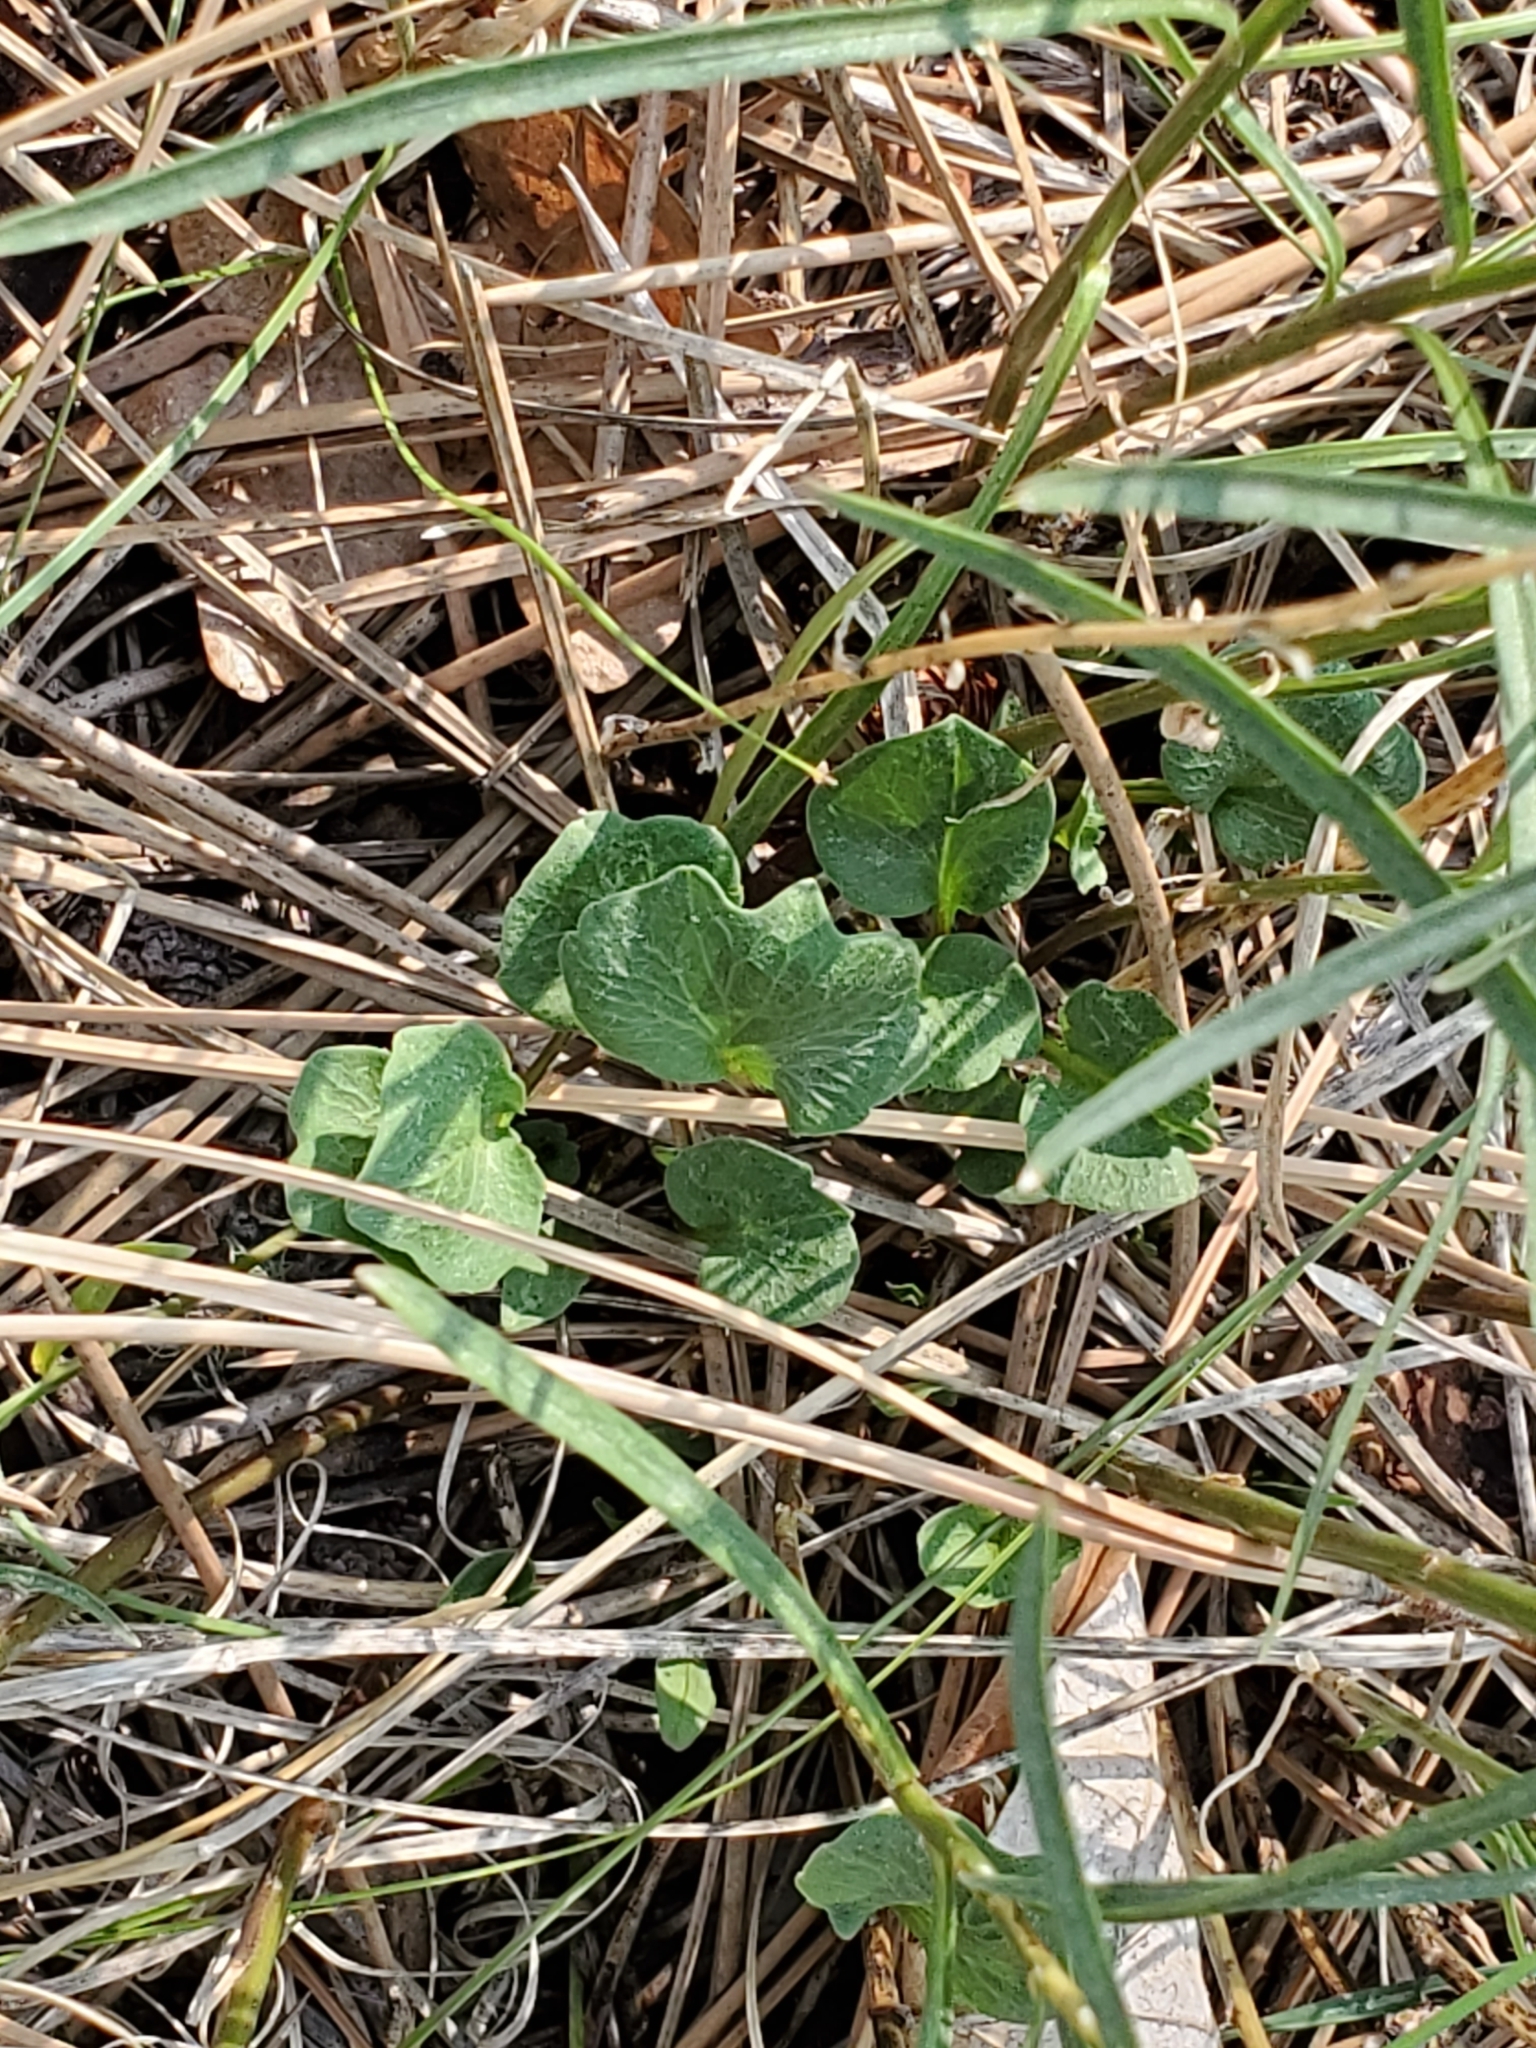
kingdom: Plantae
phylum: Tracheophyta
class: Magnoliopsida
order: Asterales
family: Campanulaceae
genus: Campanula
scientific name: Campanula petiolata
